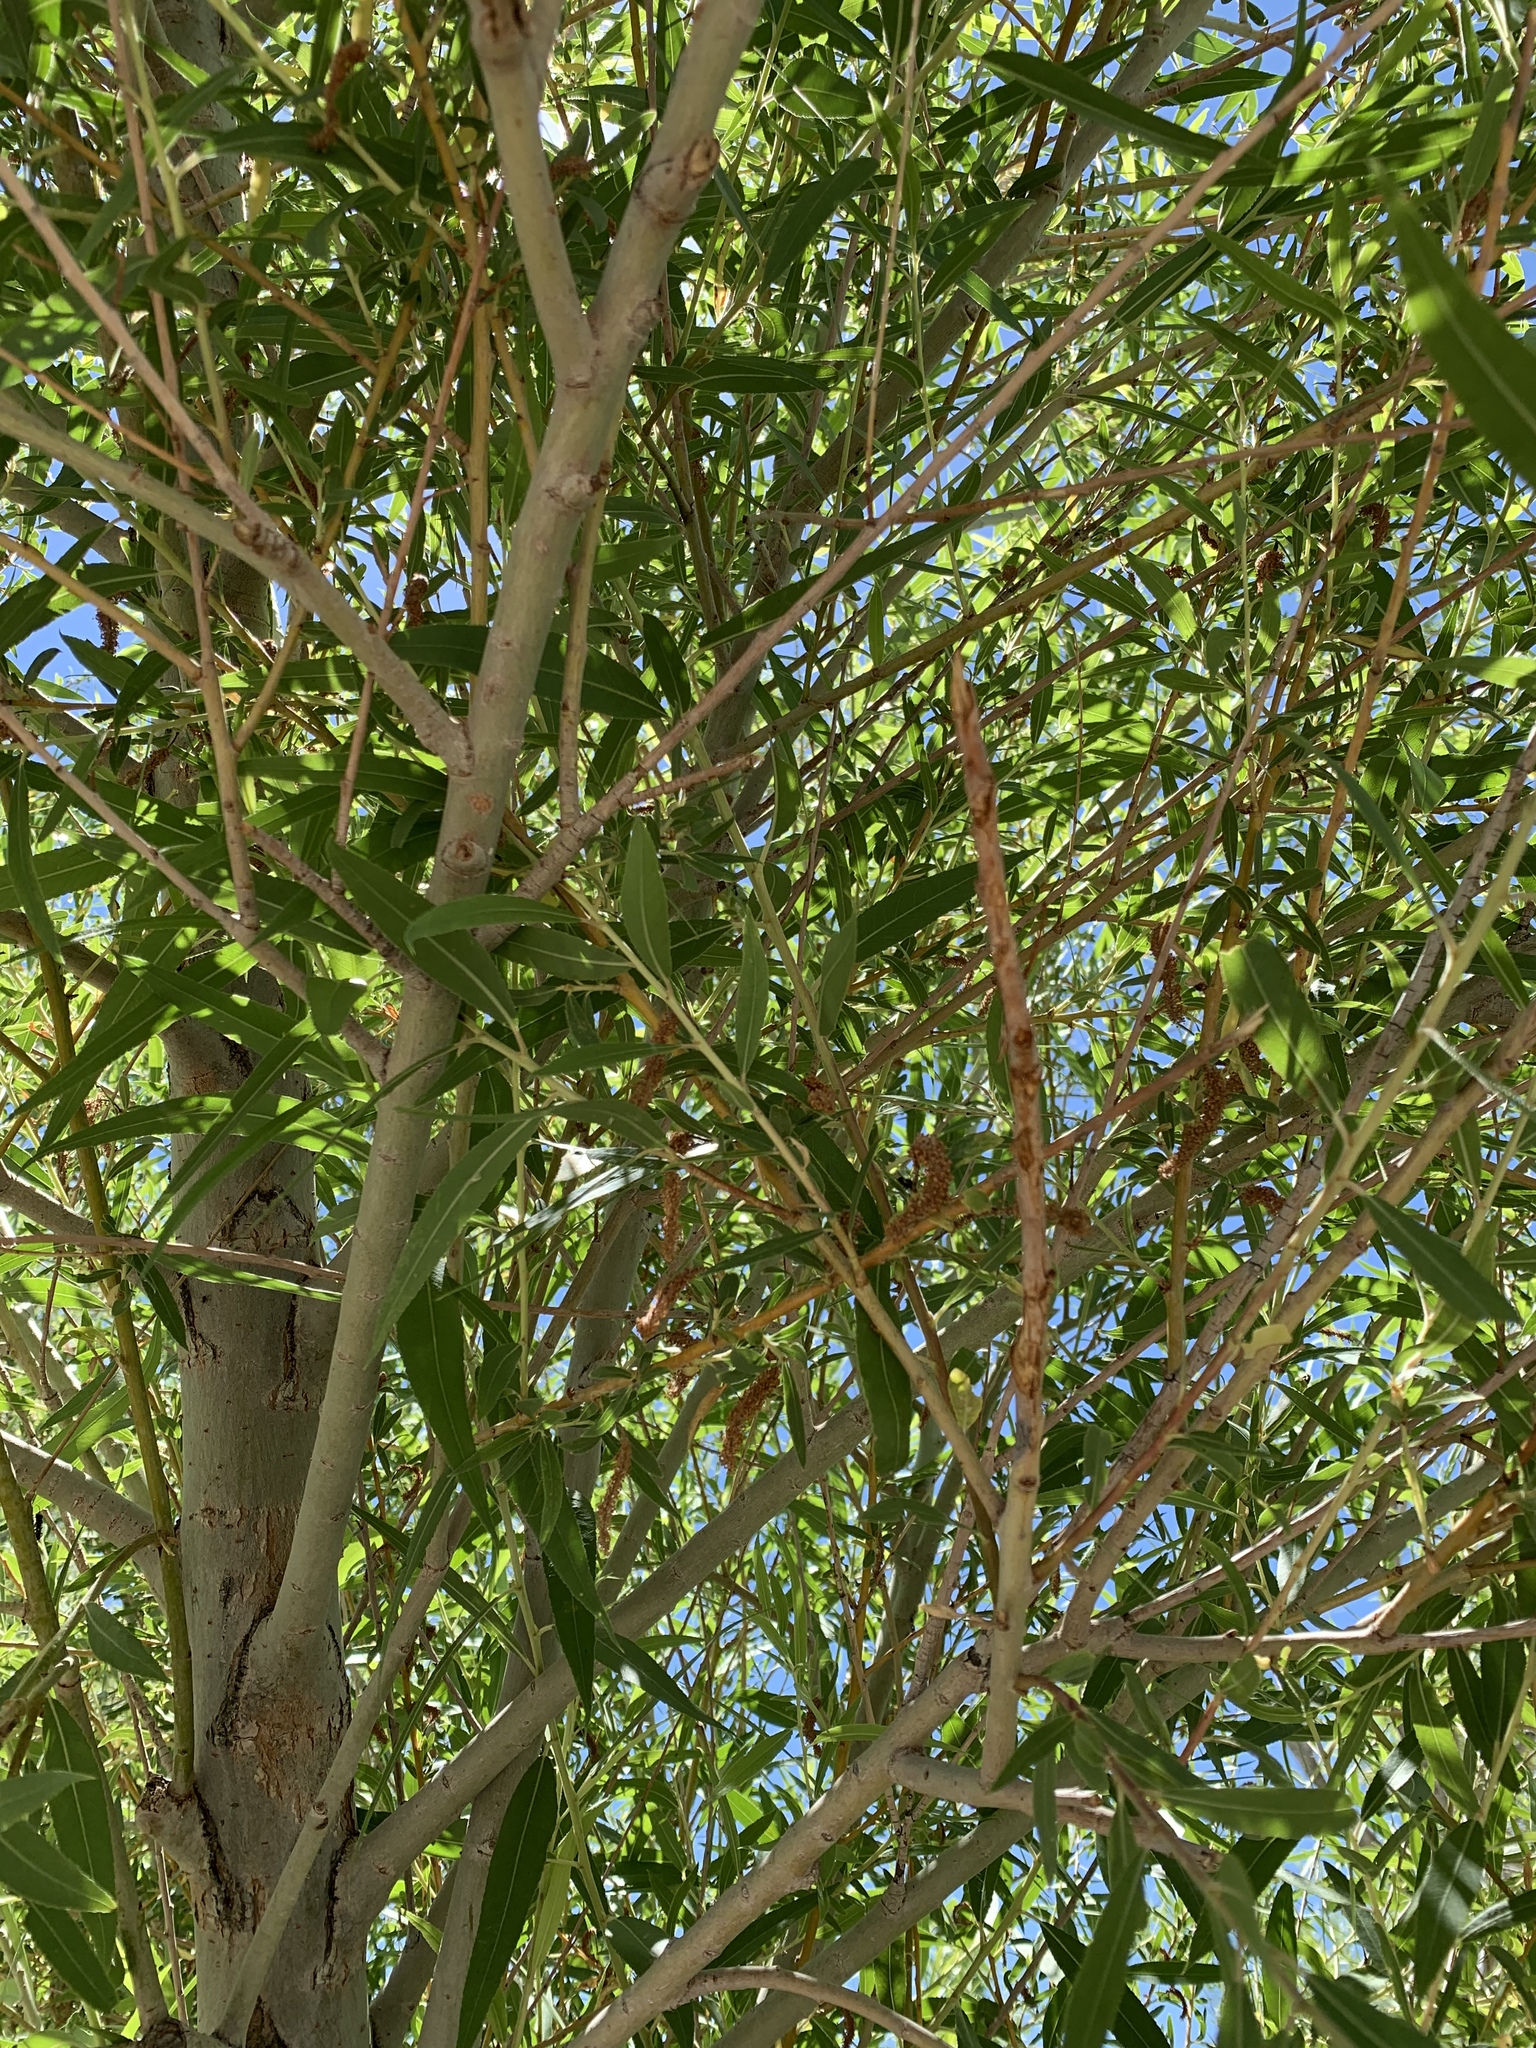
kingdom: Plantae
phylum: Tracheophyta
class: Magnoliopsida
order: Malpighiales
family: Salicaceae
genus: Salix
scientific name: Salix gooddingii
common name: Goodding's willow
